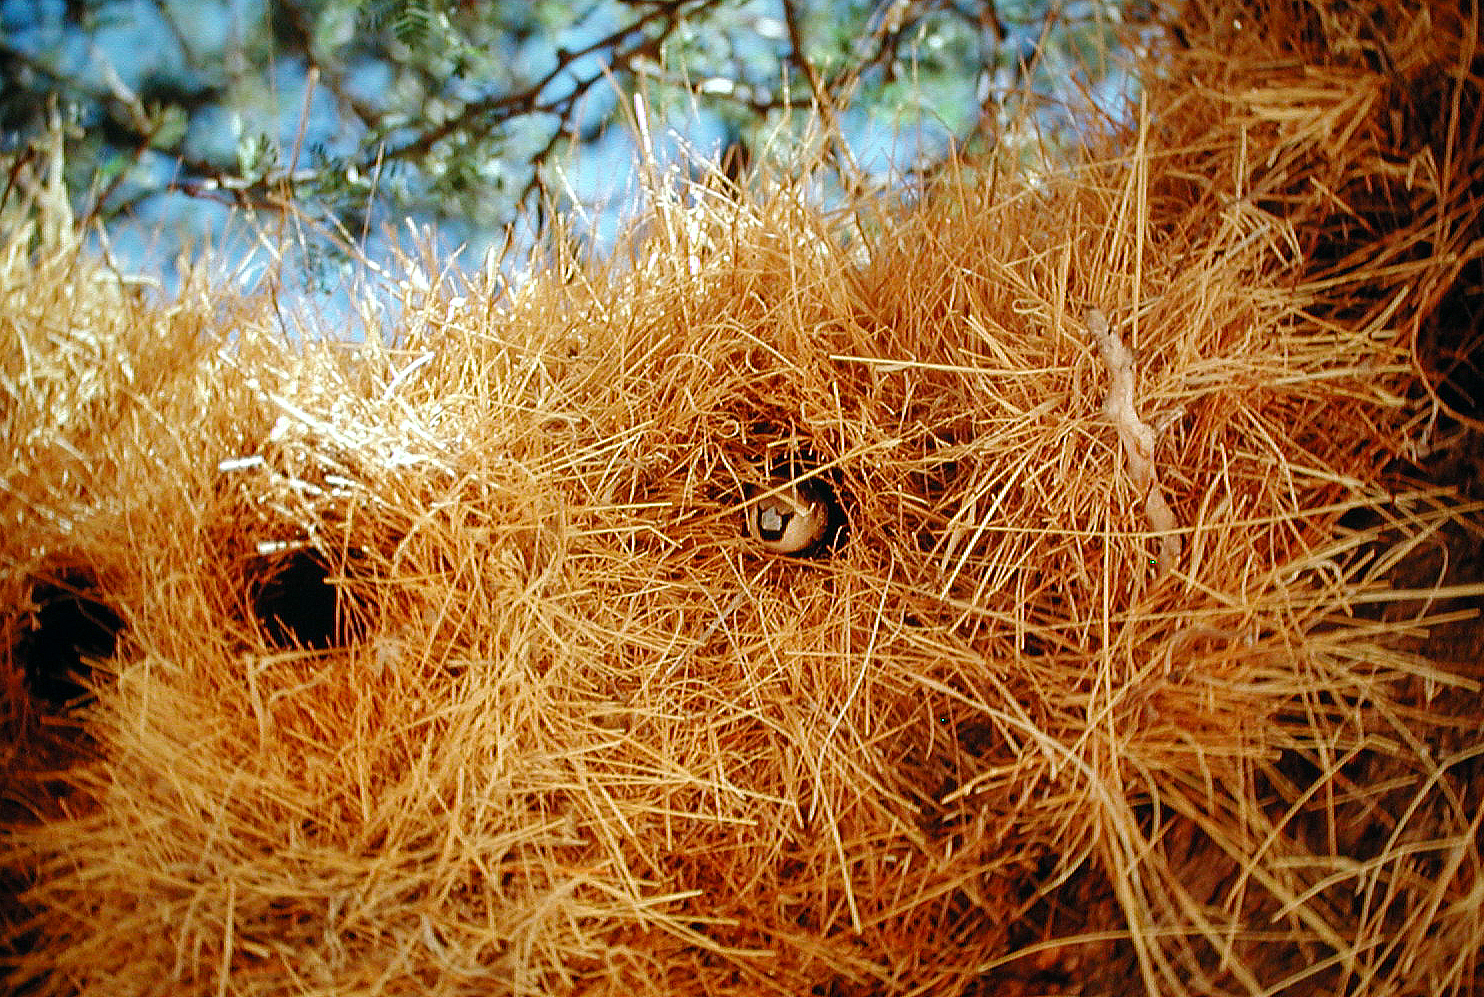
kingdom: Animalia
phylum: Chordata
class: Aves
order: Passeriformes
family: Passeridae
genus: Philetairus
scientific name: Philetairus socius
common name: Sociable weaver
